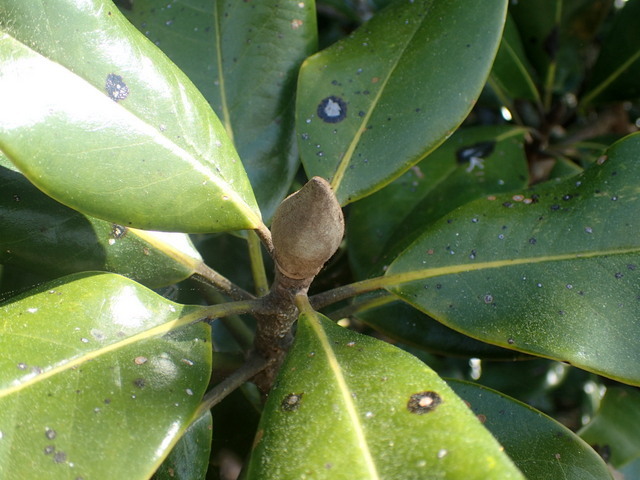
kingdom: Plantae
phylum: Tracheophyta
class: Magnoliopsida
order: Magnoliales
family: Magnoliaceae
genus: Magnolia
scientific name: Magnolia grandiflora
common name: Southern magnolia
